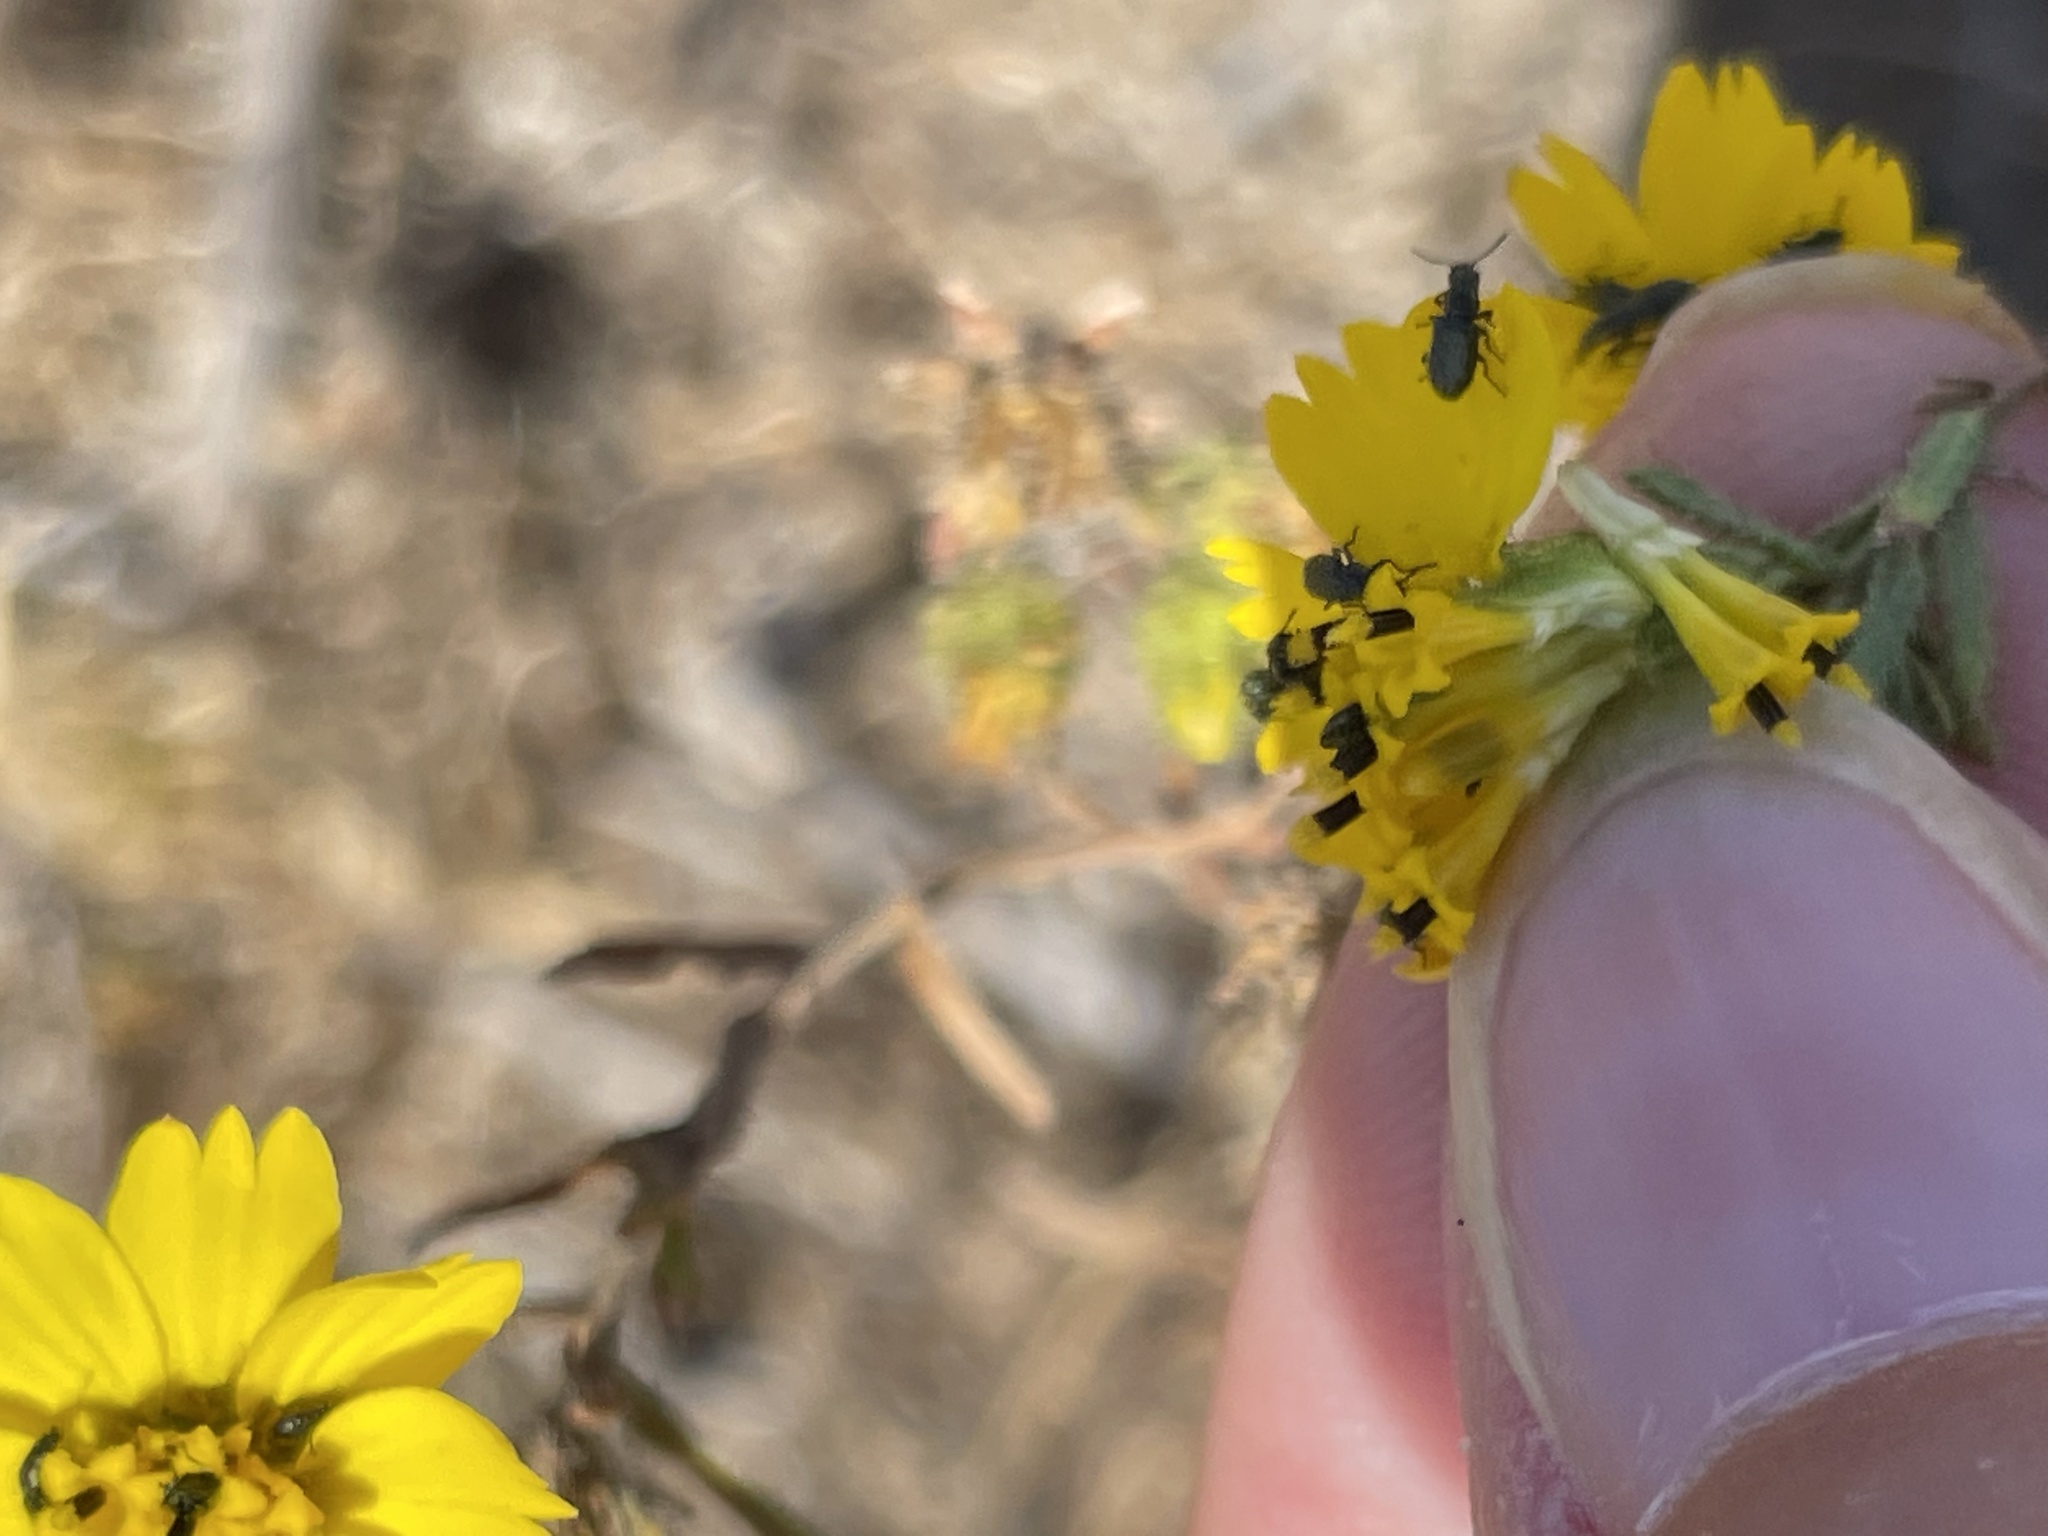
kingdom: Plantae
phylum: Tracheophyta
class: Magnoliopsida
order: Asterales
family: Asteraceae
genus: Deinandra
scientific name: Deinandra conjugens
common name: Otay tarplant
